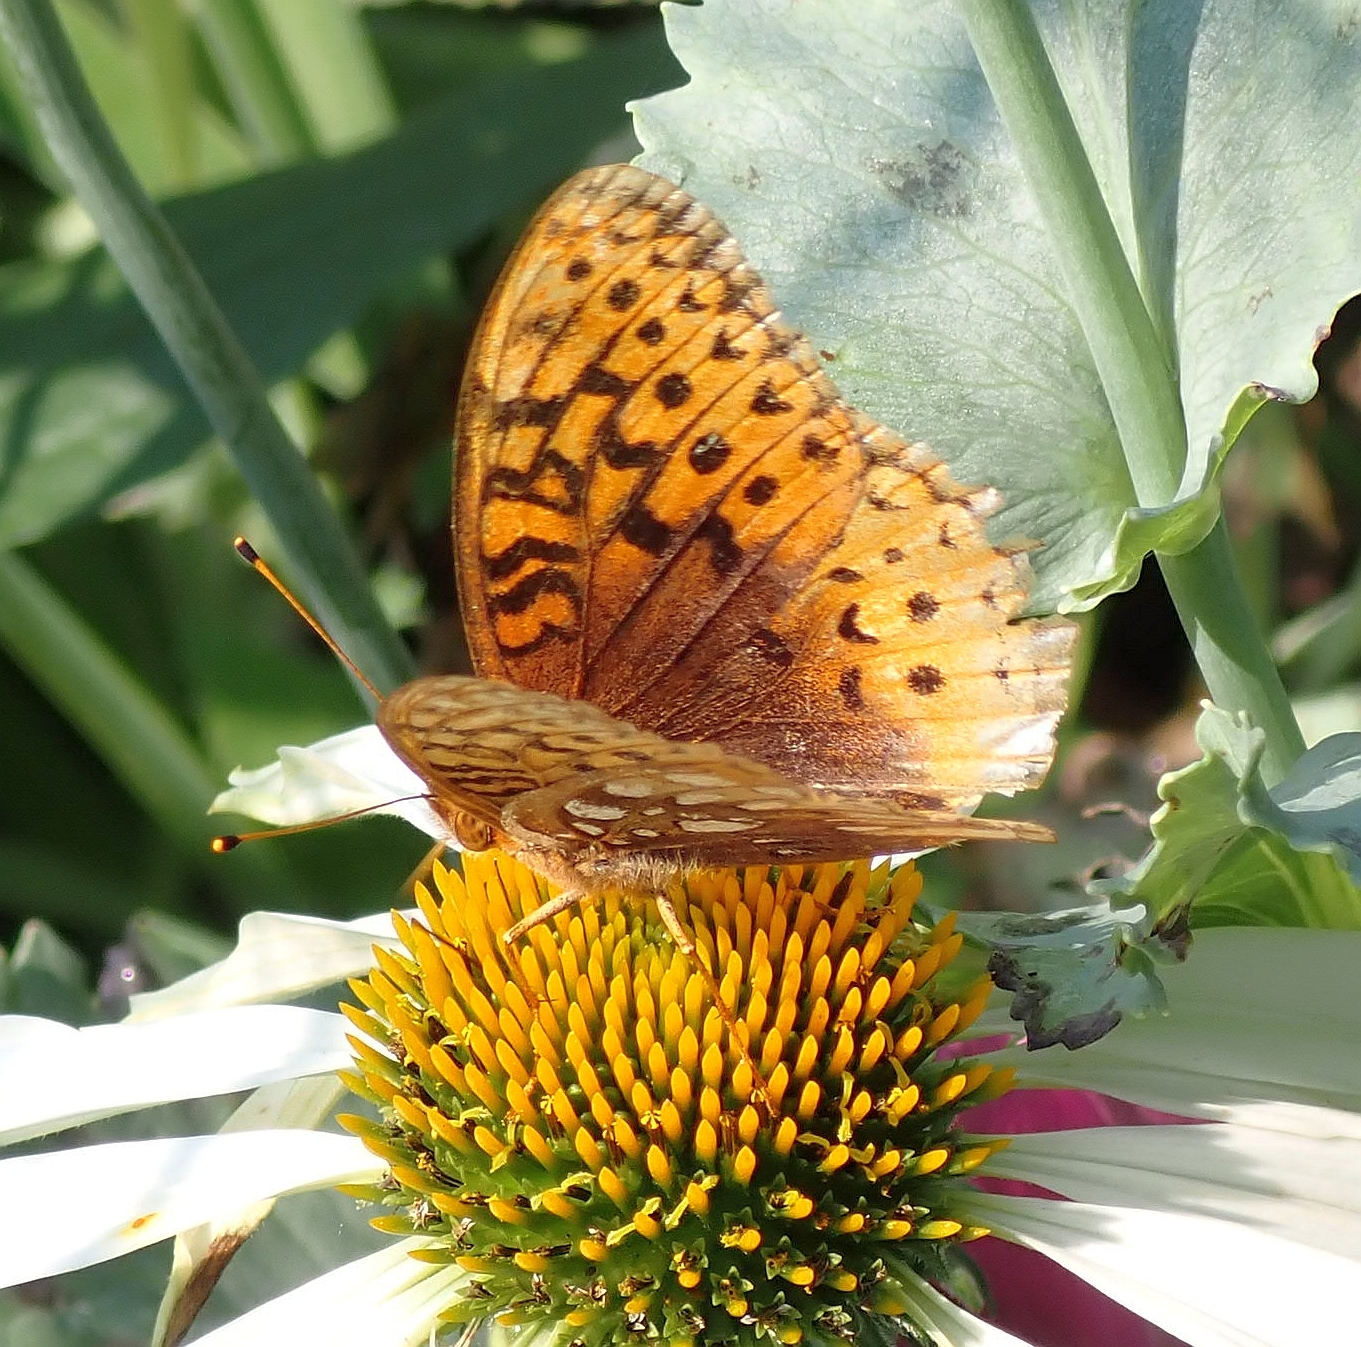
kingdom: Animalia
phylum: Arthropoda
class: Insecta
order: Lepidoptera
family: Nymphalidae
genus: Speyeria
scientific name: Speyeria cybele
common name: Great spangled fritillary
